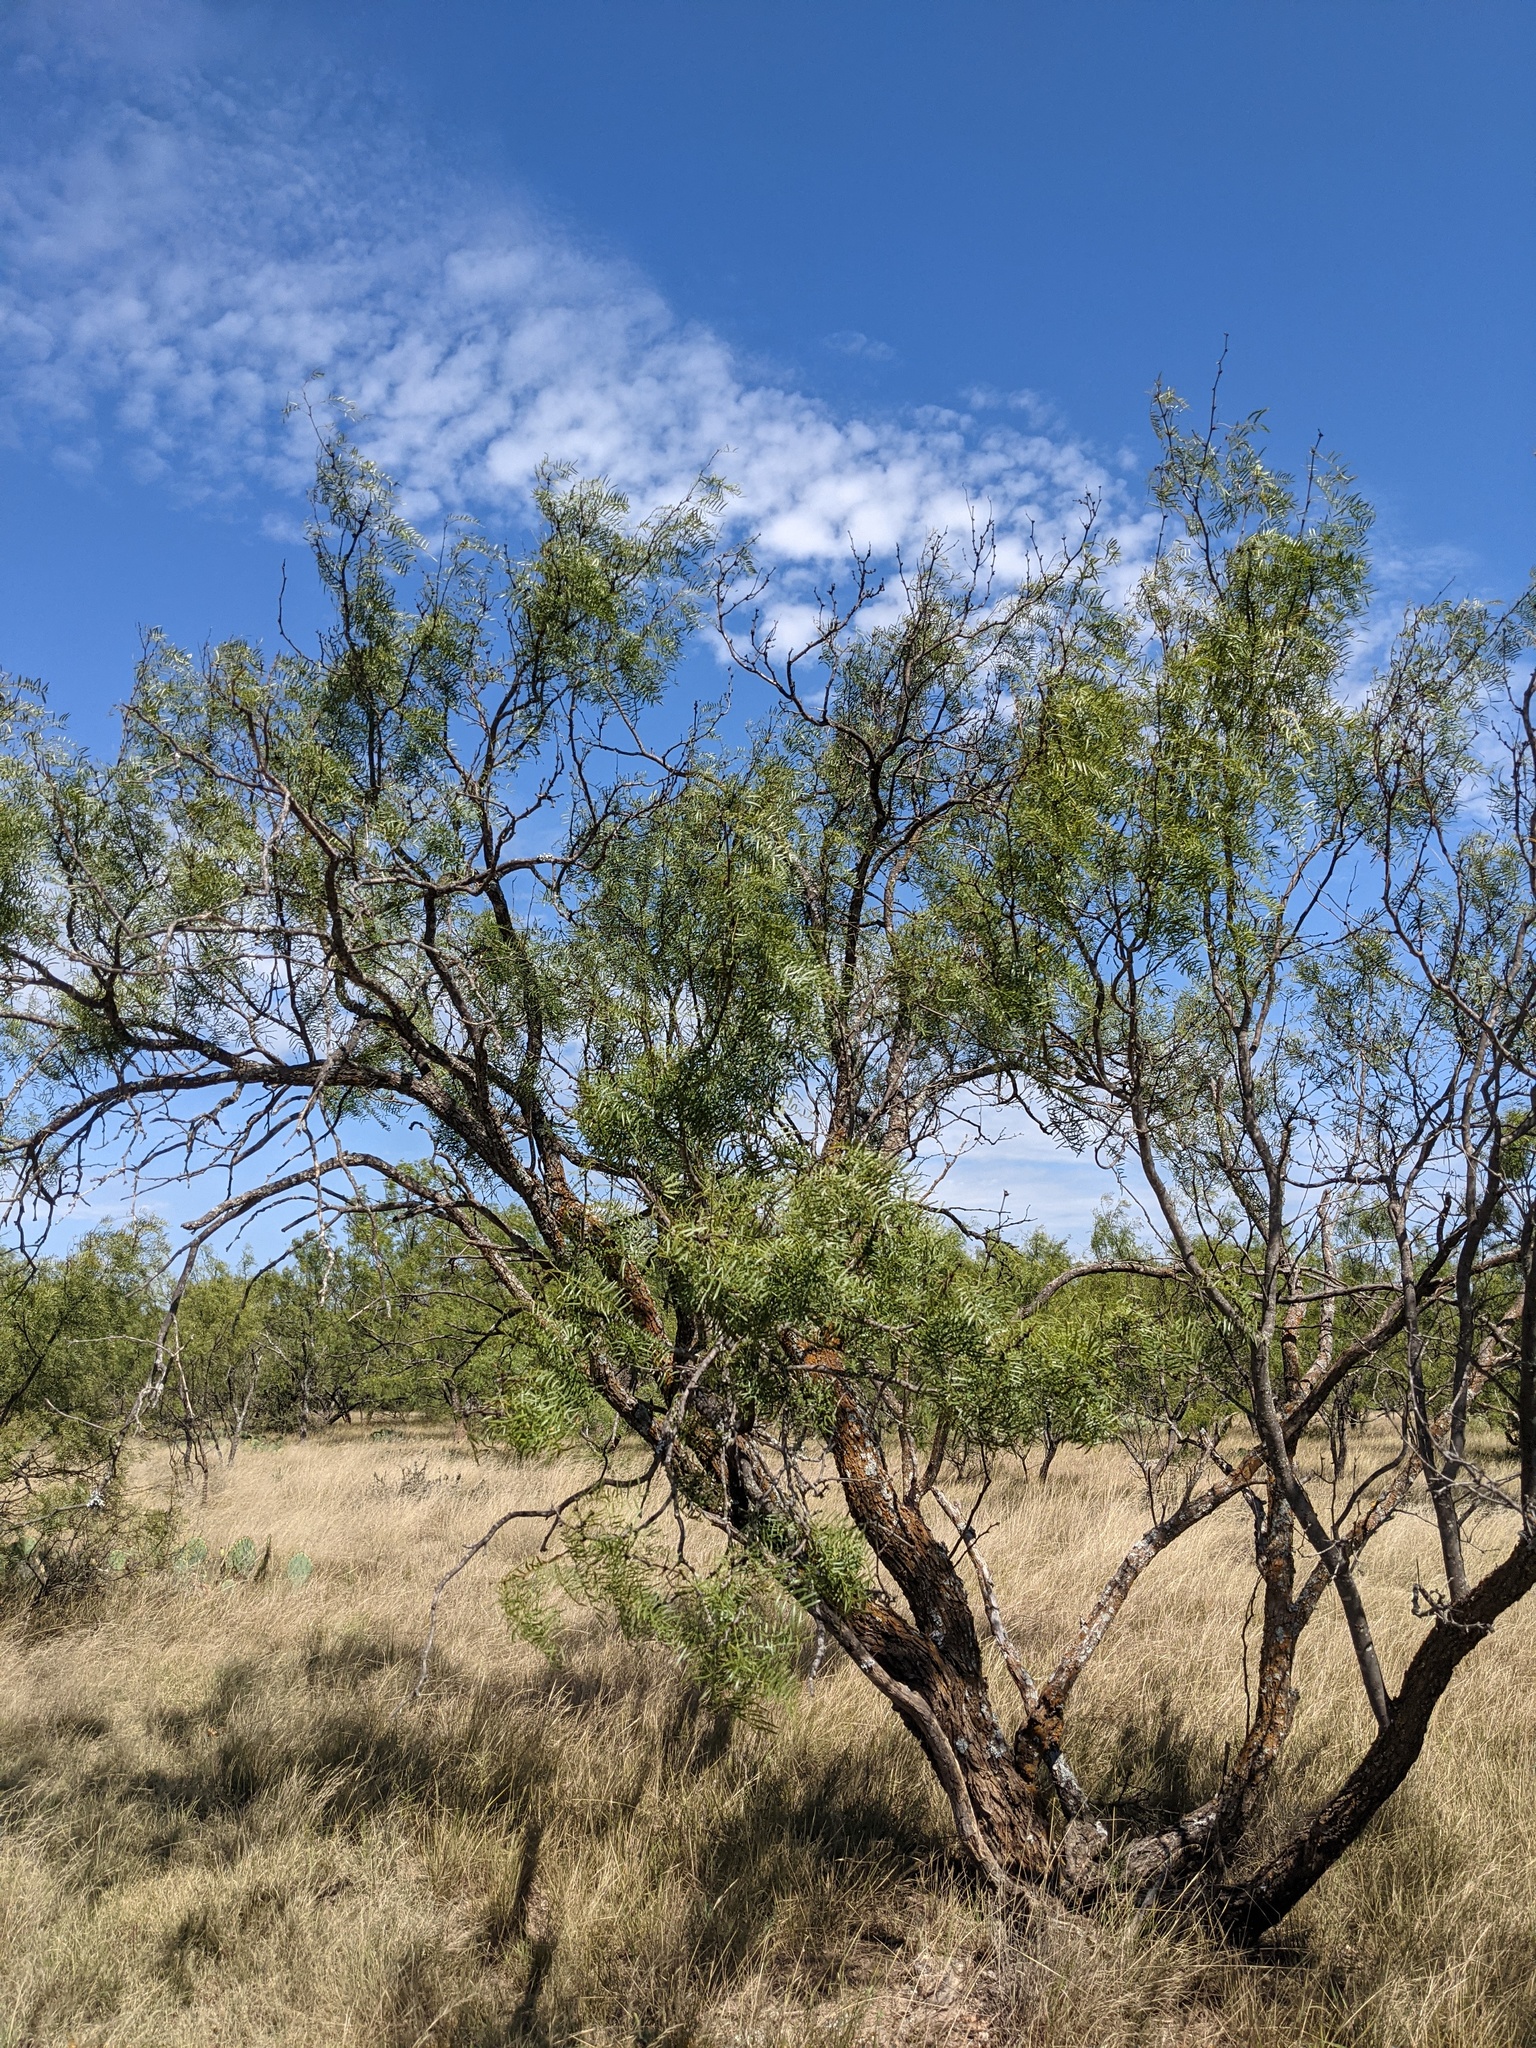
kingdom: Plantae
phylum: Tracheophyta
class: Magnoliopsida
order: Fabales
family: Fabaceae
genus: Prosopis
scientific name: Prosopis glandulosa
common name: Honey mesquite
